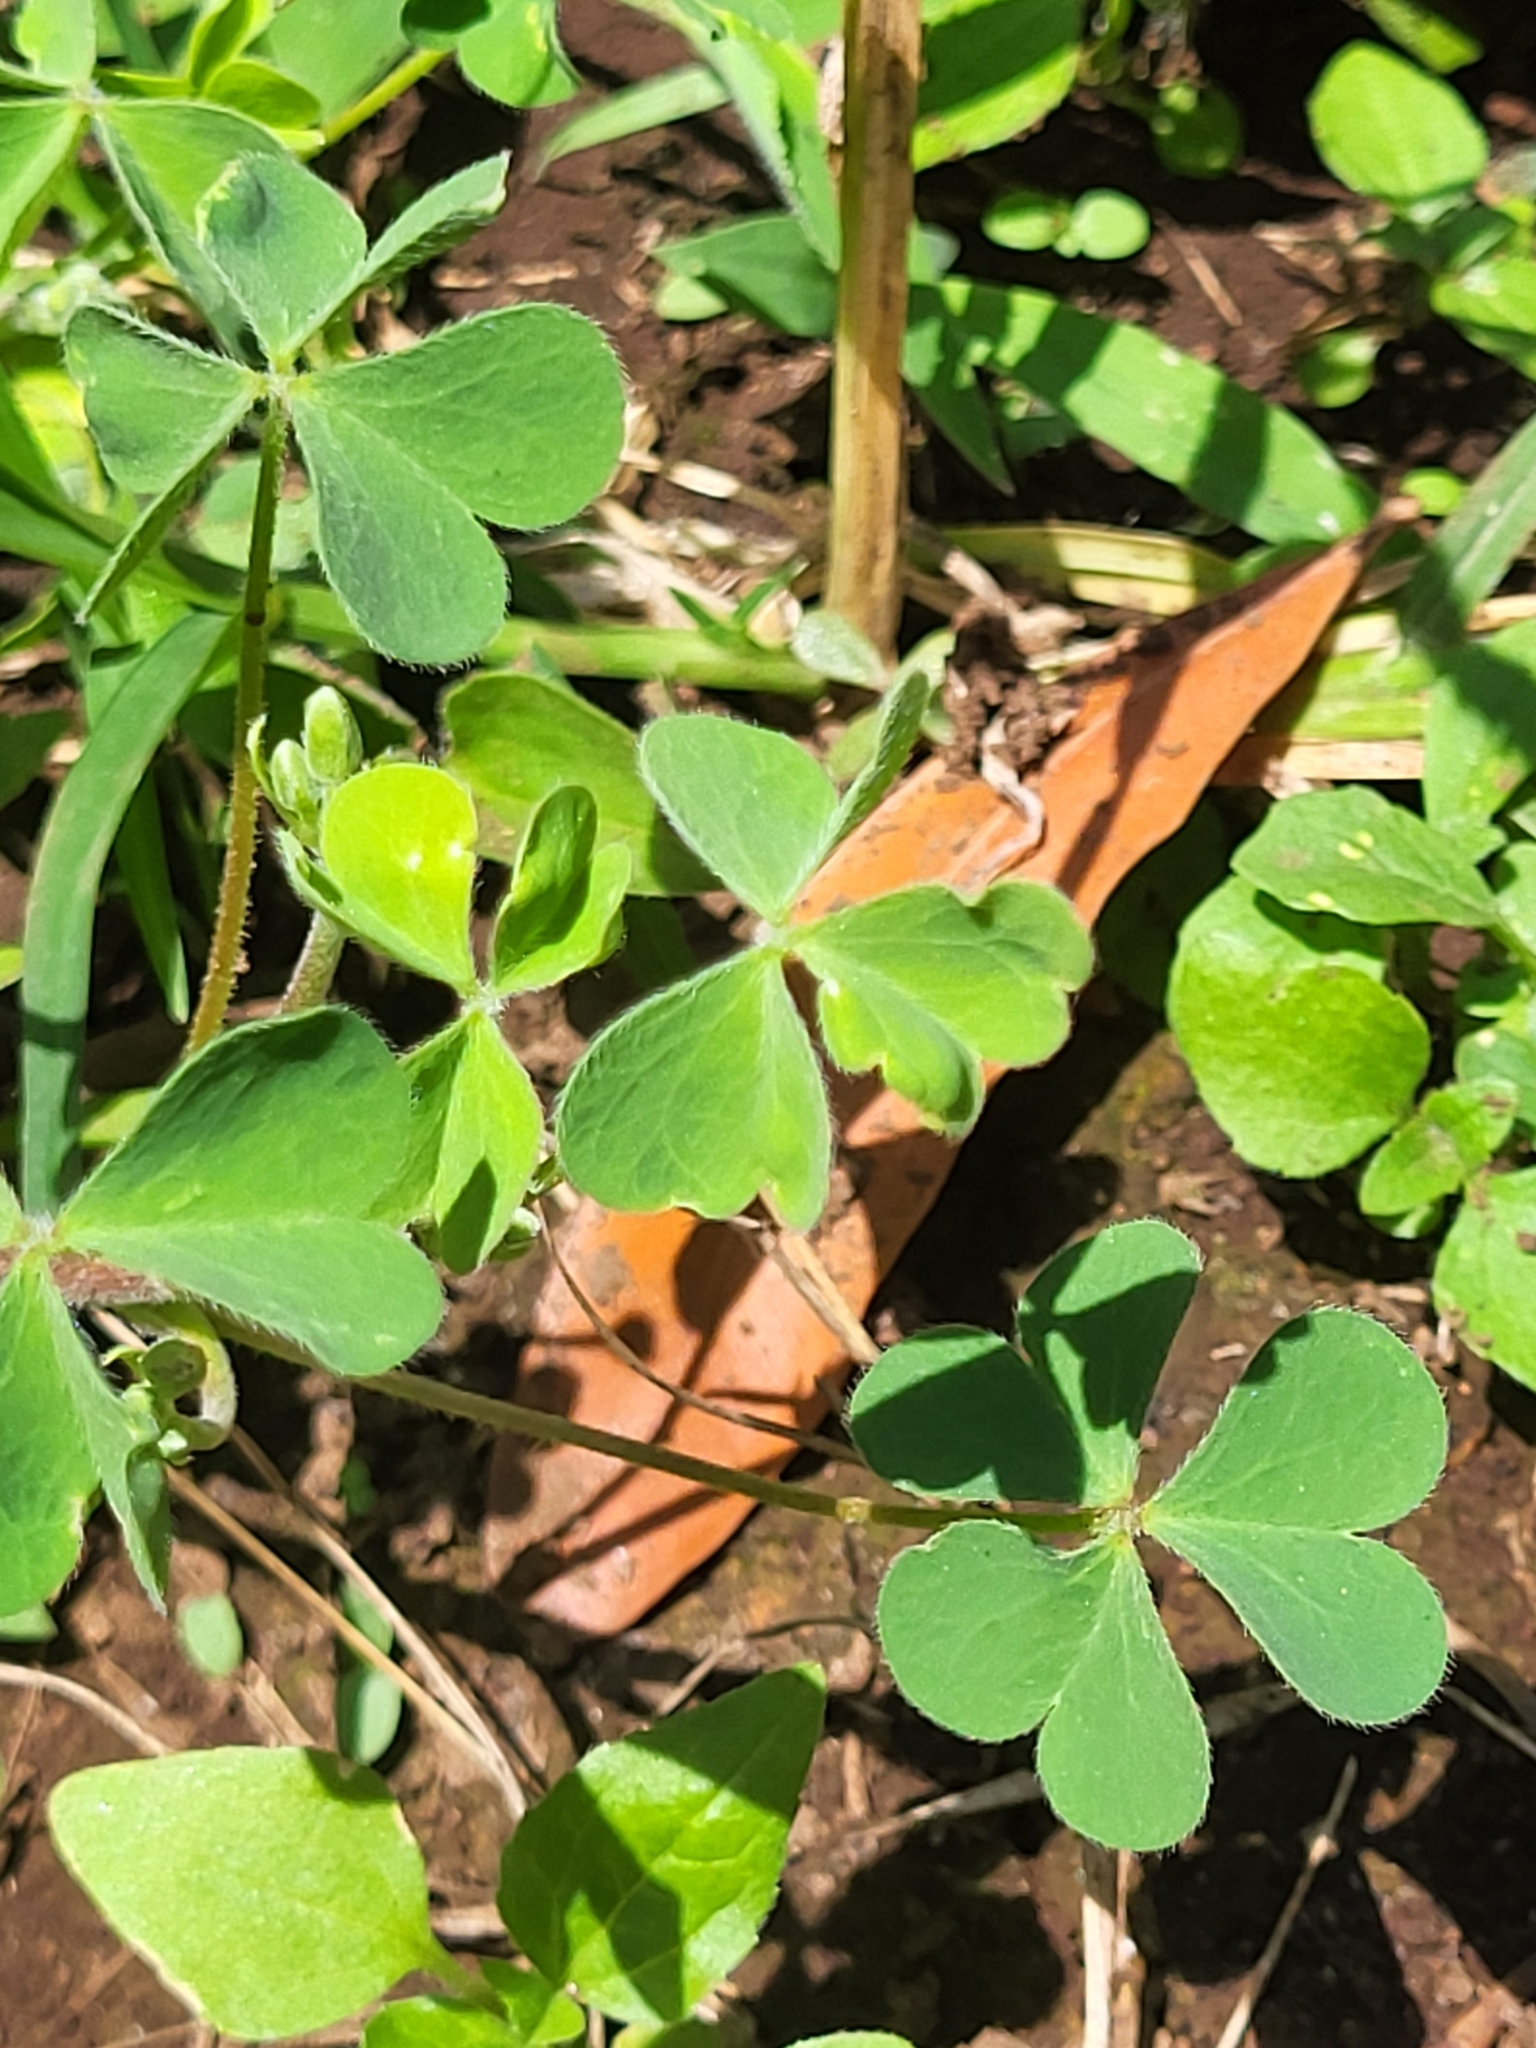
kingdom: Plantae
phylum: Tracheophyta
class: Magnoliopsida
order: Oxalidales
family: Oxalidaceae
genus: Oxalis
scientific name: Oxalis corniculata
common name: Procumbent yellow-sorrel
